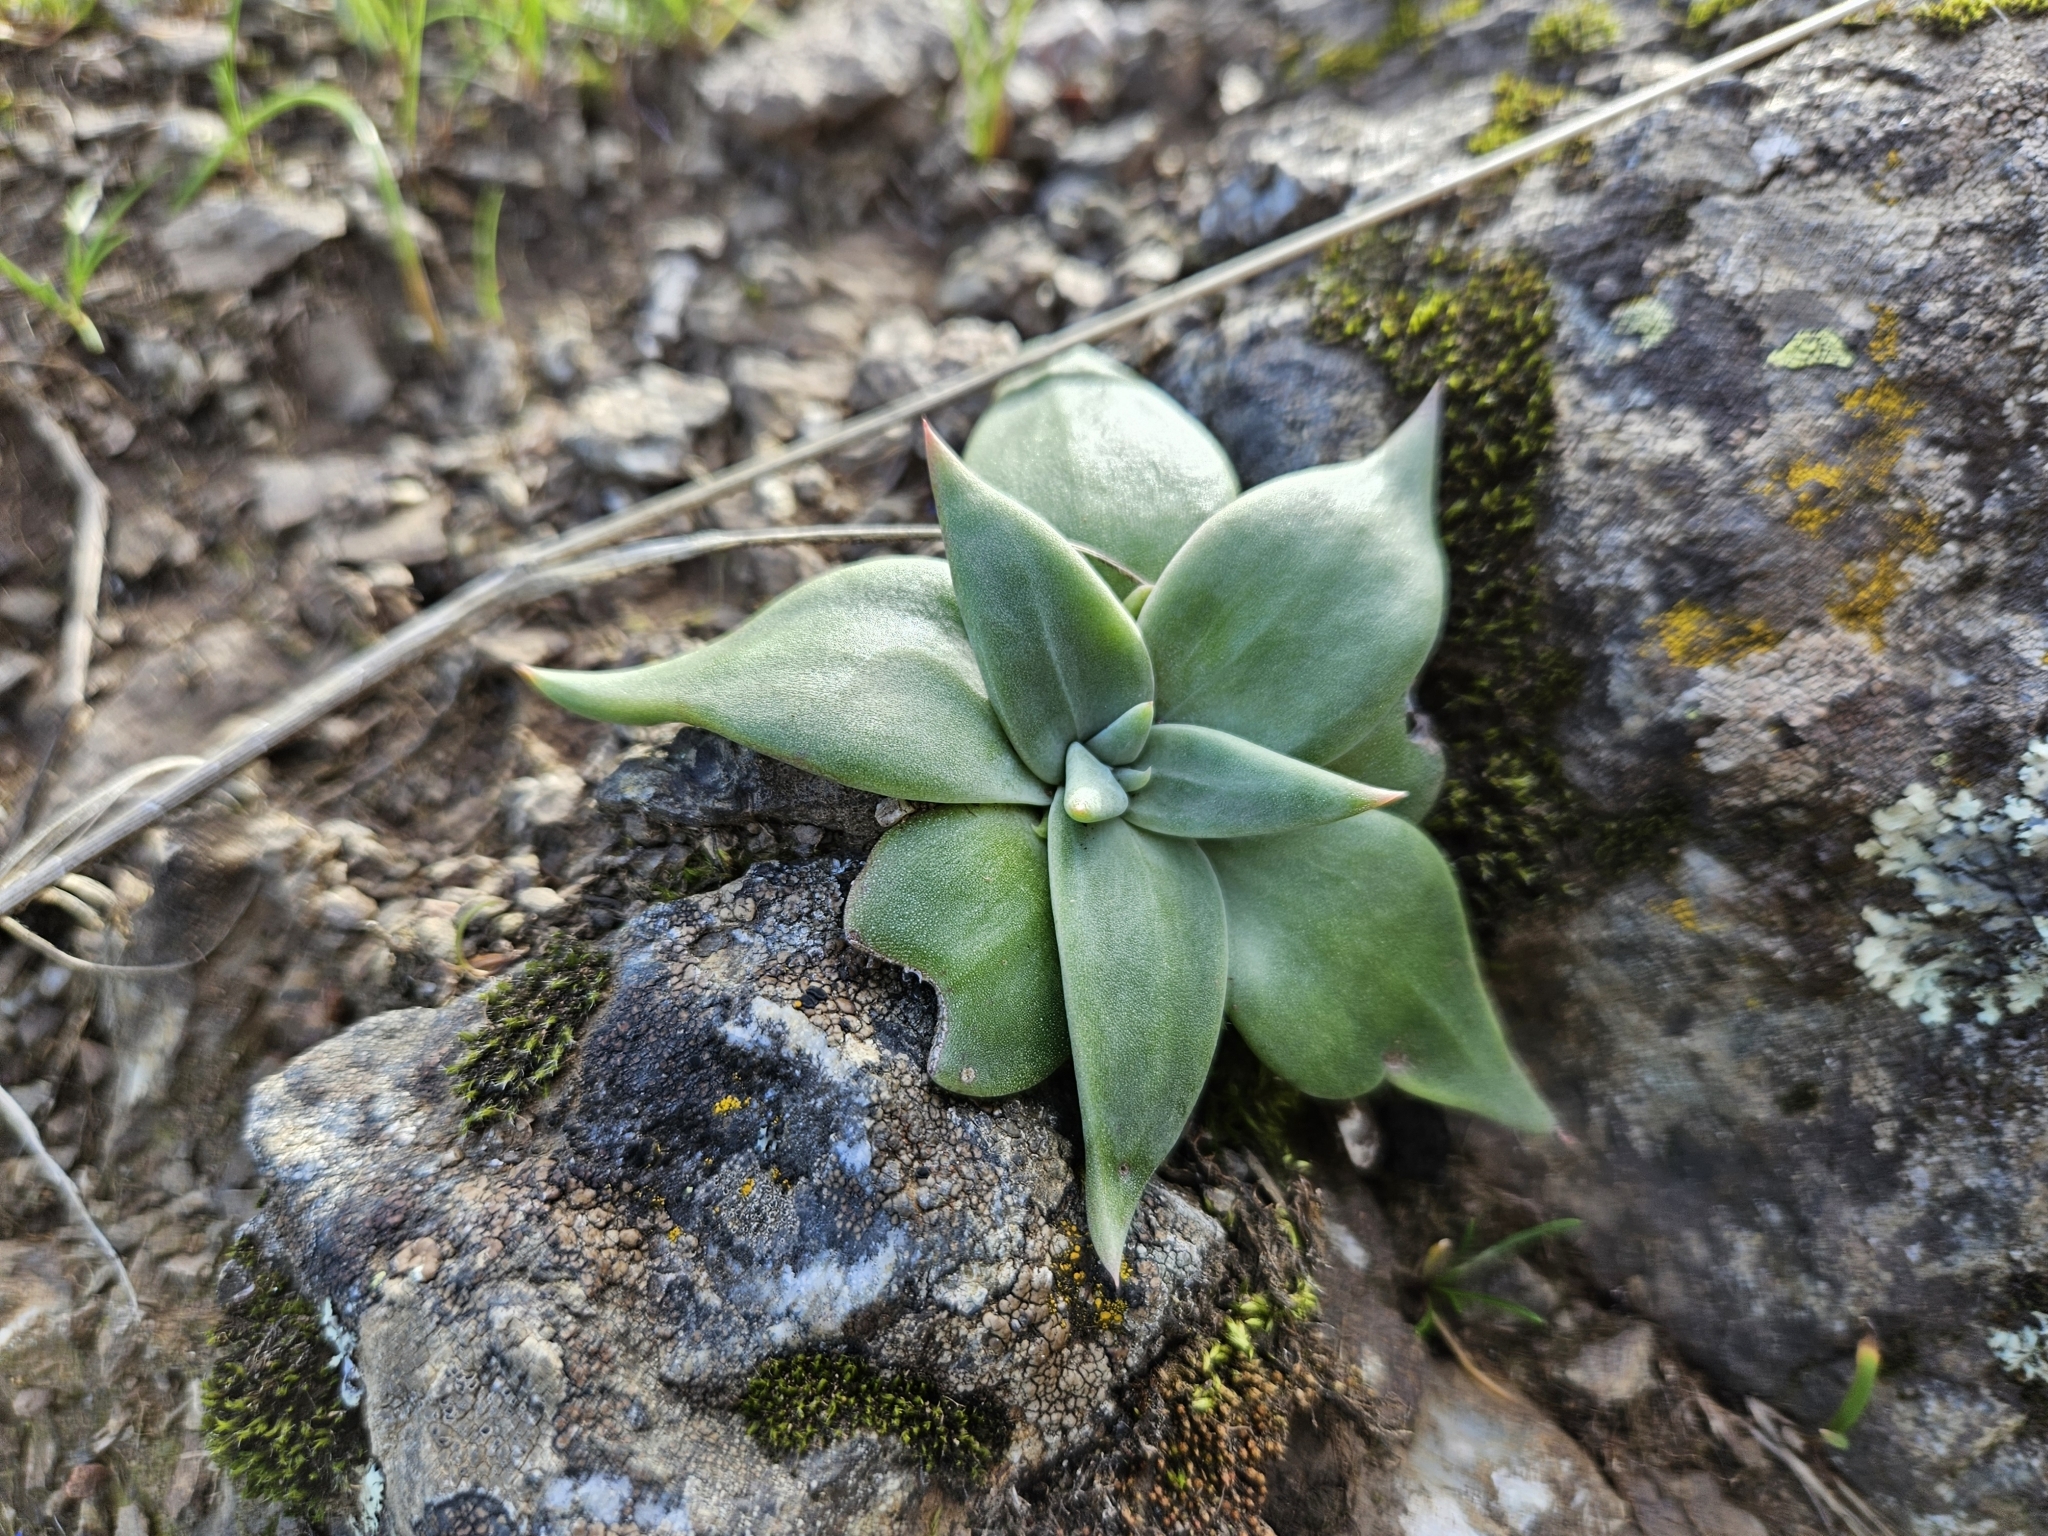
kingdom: Plantae
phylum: Tracheophyta
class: Magnoliopsida
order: Saxifragales
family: Crassulaceae
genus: Dudleya
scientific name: Dudleya cymosa
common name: Canyon dudleya
